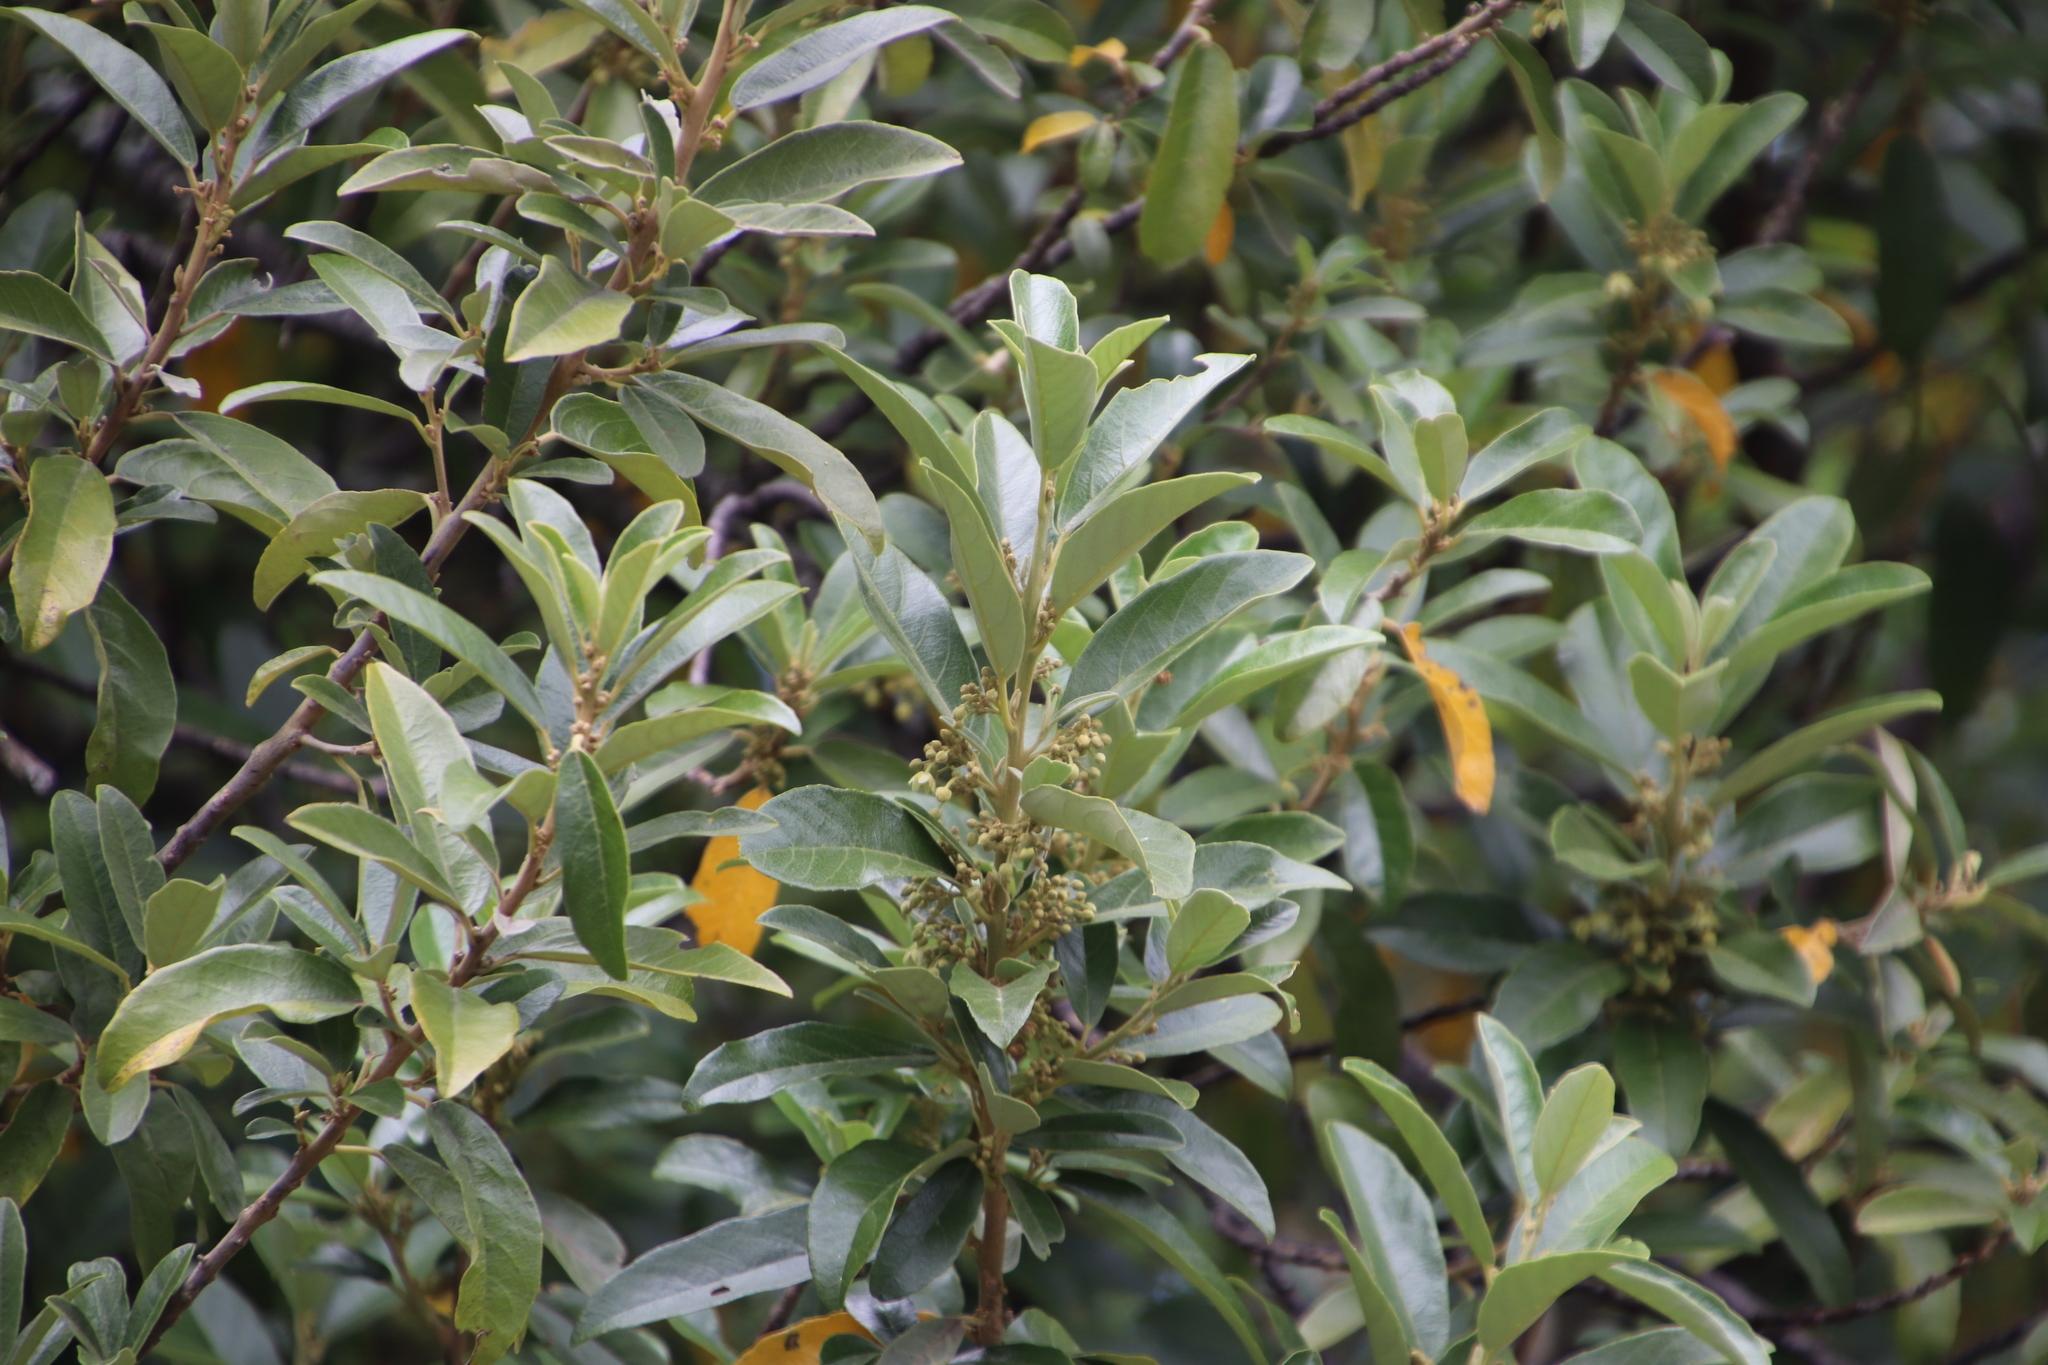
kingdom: Plantae
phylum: Tracheophyta
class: Magnoliopsida
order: Malpighiales
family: Achariaceae
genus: Kiggelaria
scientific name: Kiggelaria africana
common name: Wild peach
